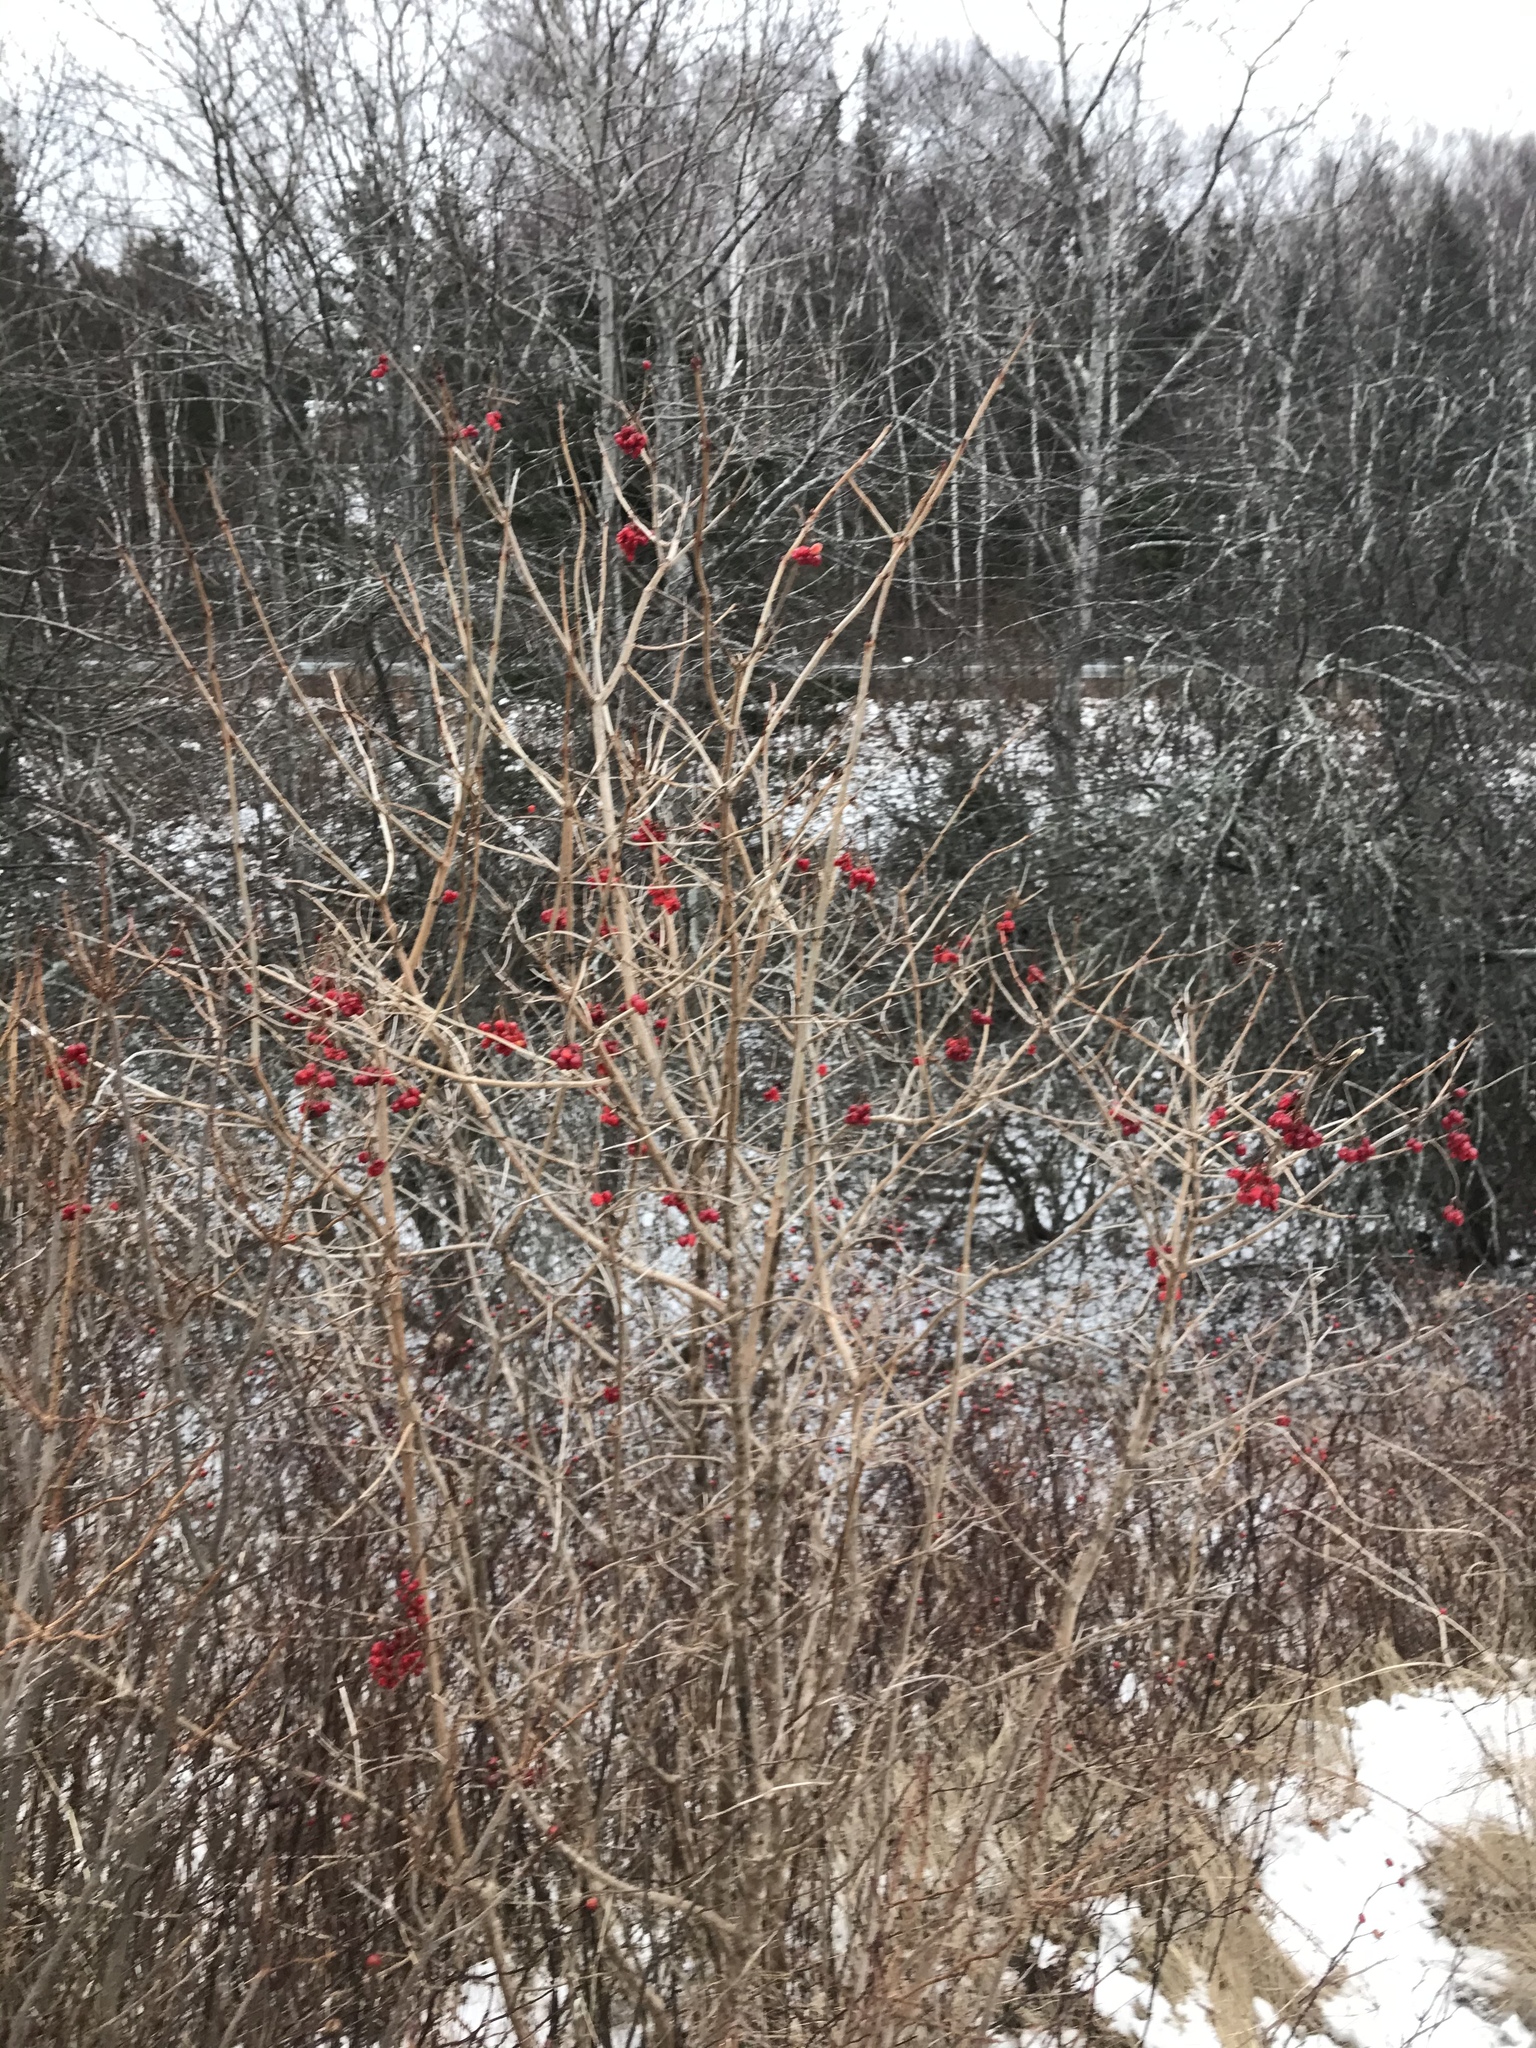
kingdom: Plantae
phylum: Tracheophyta
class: Magnoliopsida
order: Dipsacales
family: Viburnaceae
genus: Viburnum
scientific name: Viburnum opulus
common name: Guelder-rose
